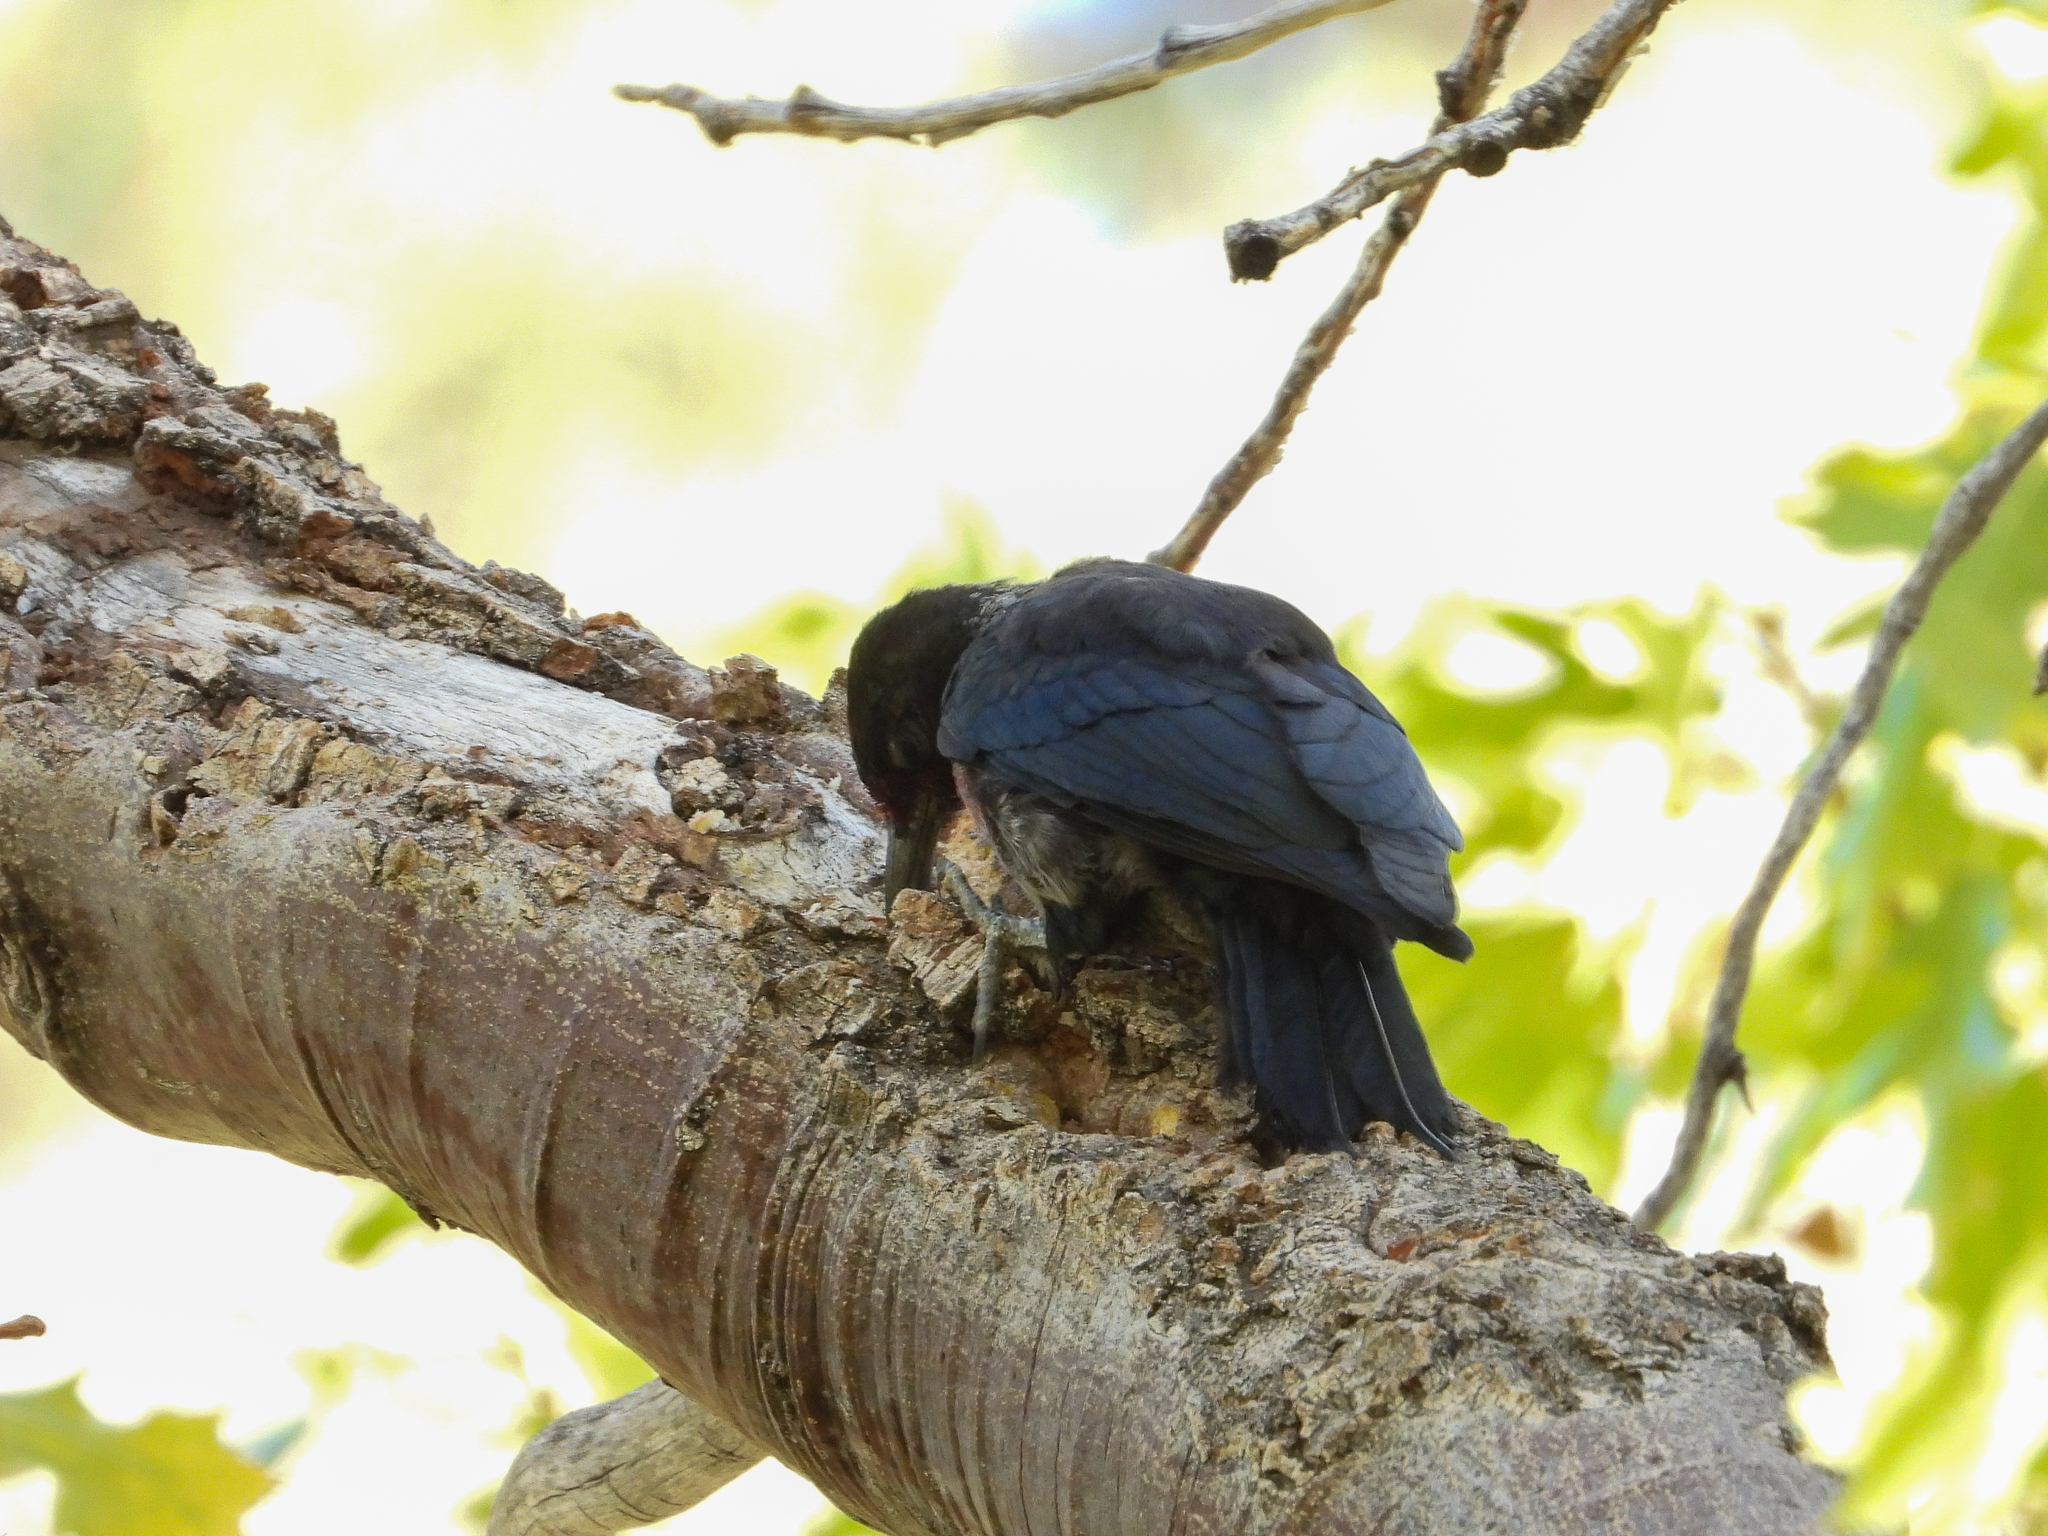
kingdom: Animalia
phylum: Chordata
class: Aves
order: Piciformes
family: Picidae
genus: Melanerpes
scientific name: Melanerpes lewis
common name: Lewis's woodpecker
